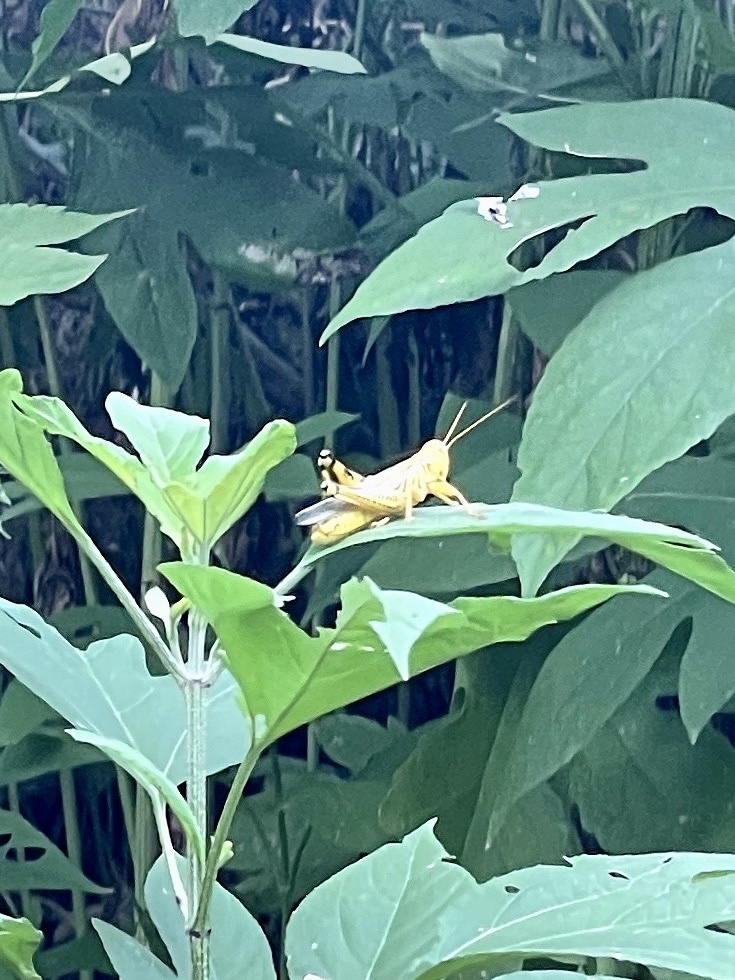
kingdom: Animalia
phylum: Arthropoda
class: Insecta
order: Orthoptera
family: Acrididae
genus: Melanoplus
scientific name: Melanoplus differentialis
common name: Differential grasshopper
